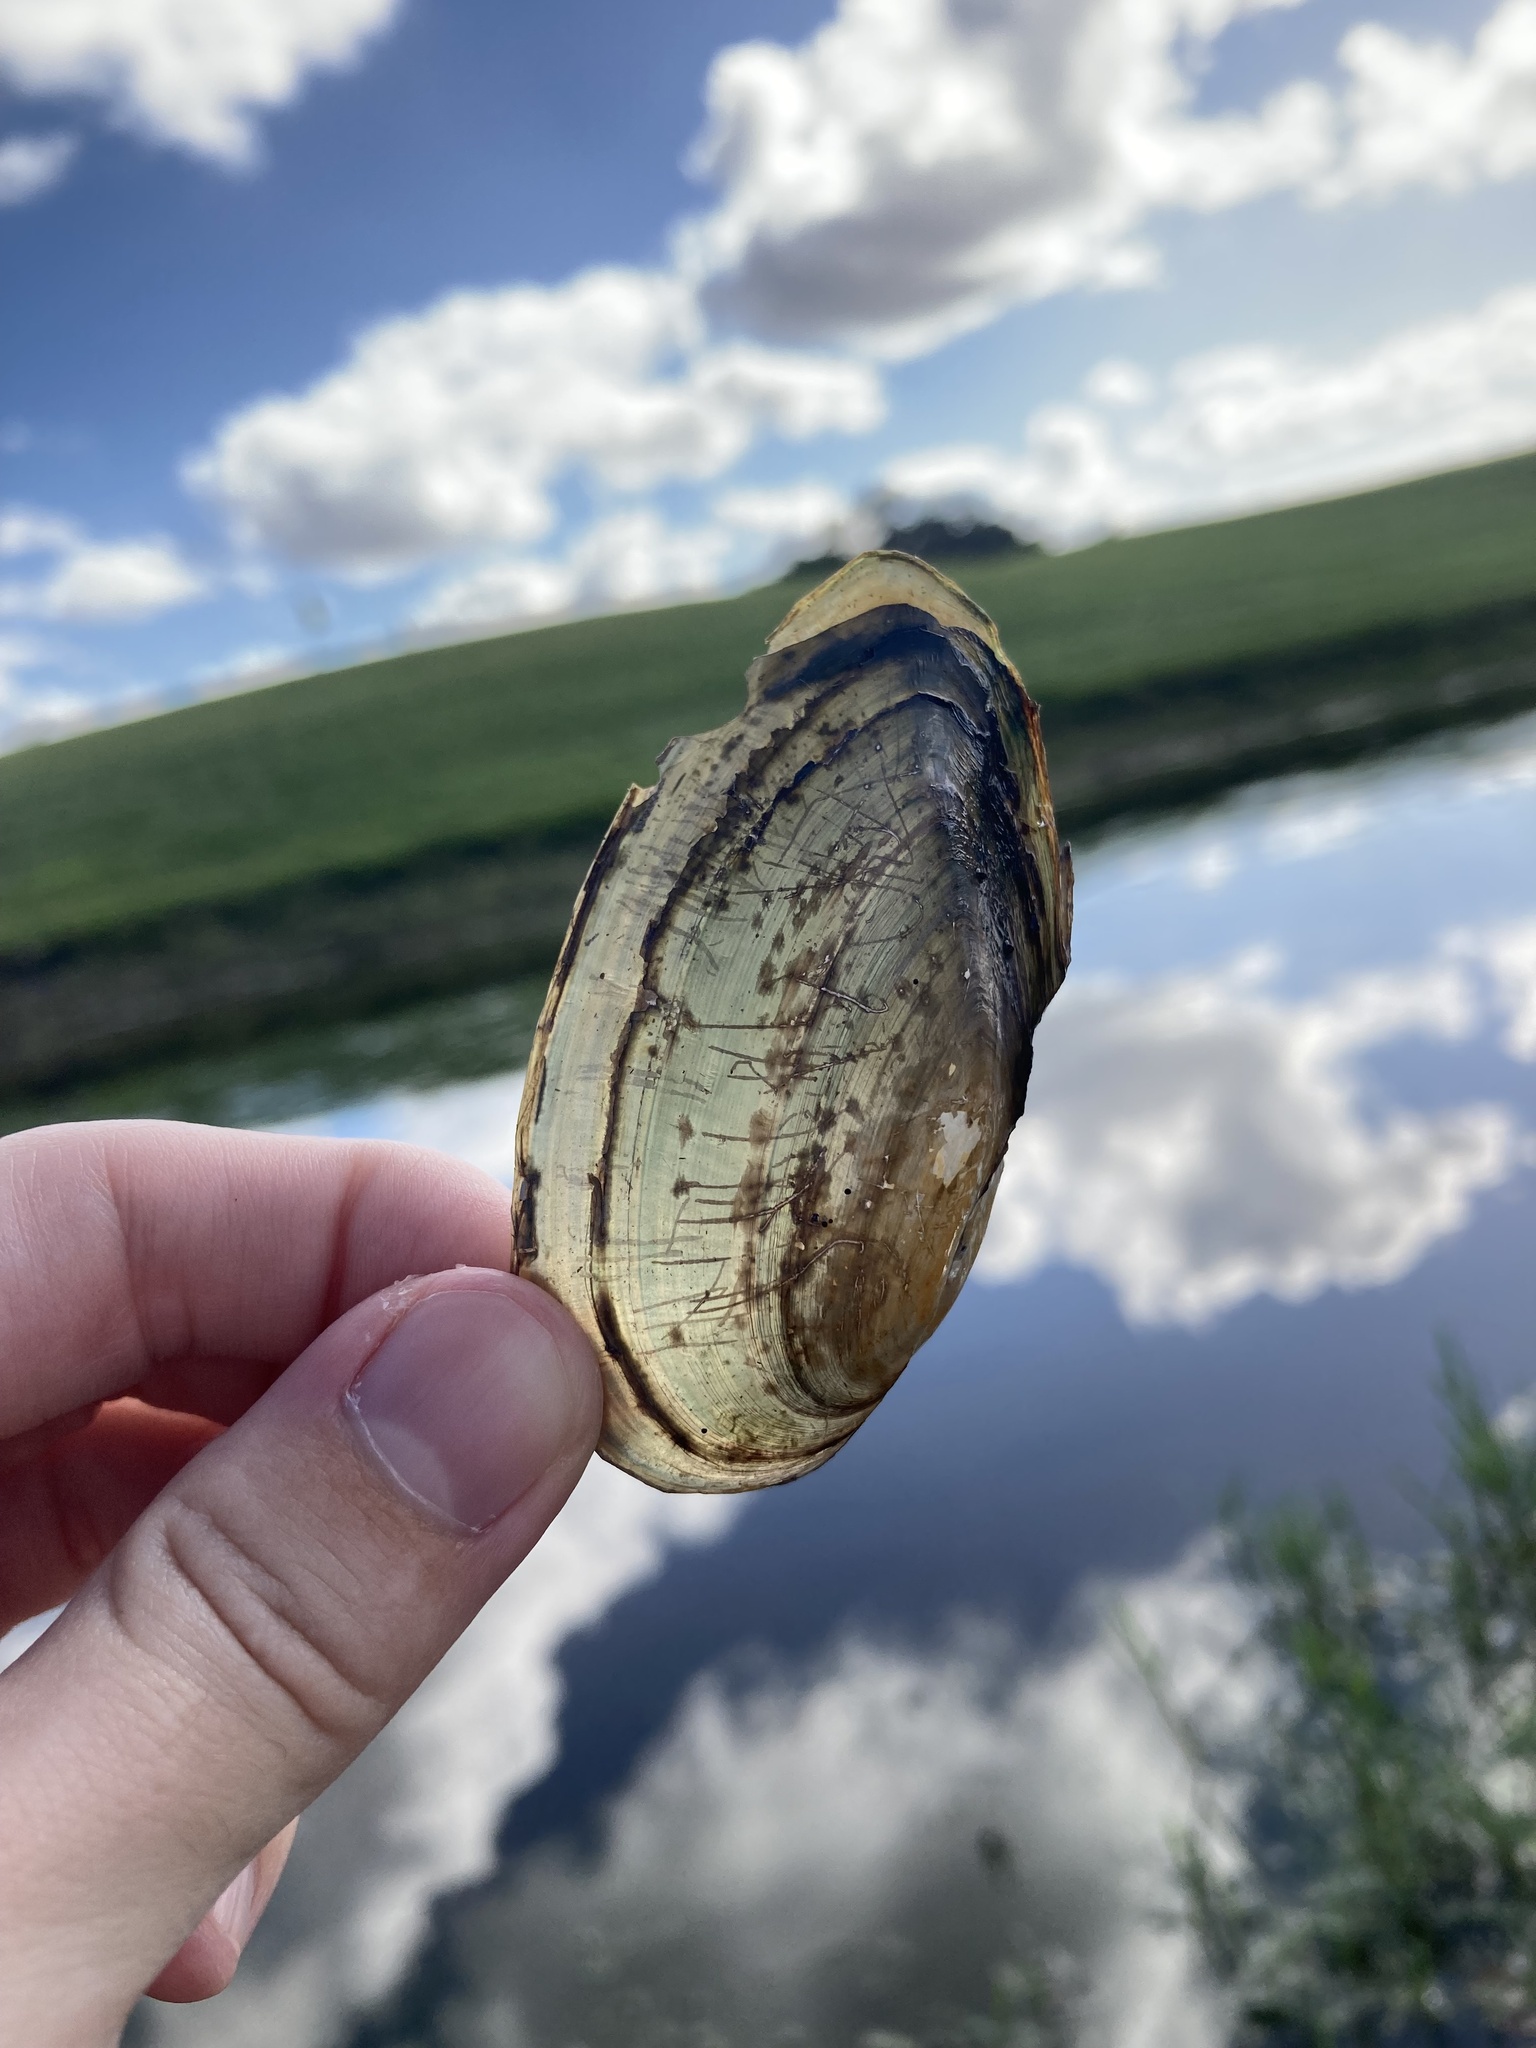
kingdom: Animalia
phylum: Mollusca
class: Bivalvia
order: Unionida
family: Unionidae
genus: Utterbackia
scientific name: Utterbackia imbecillis
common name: Paper pondshell
